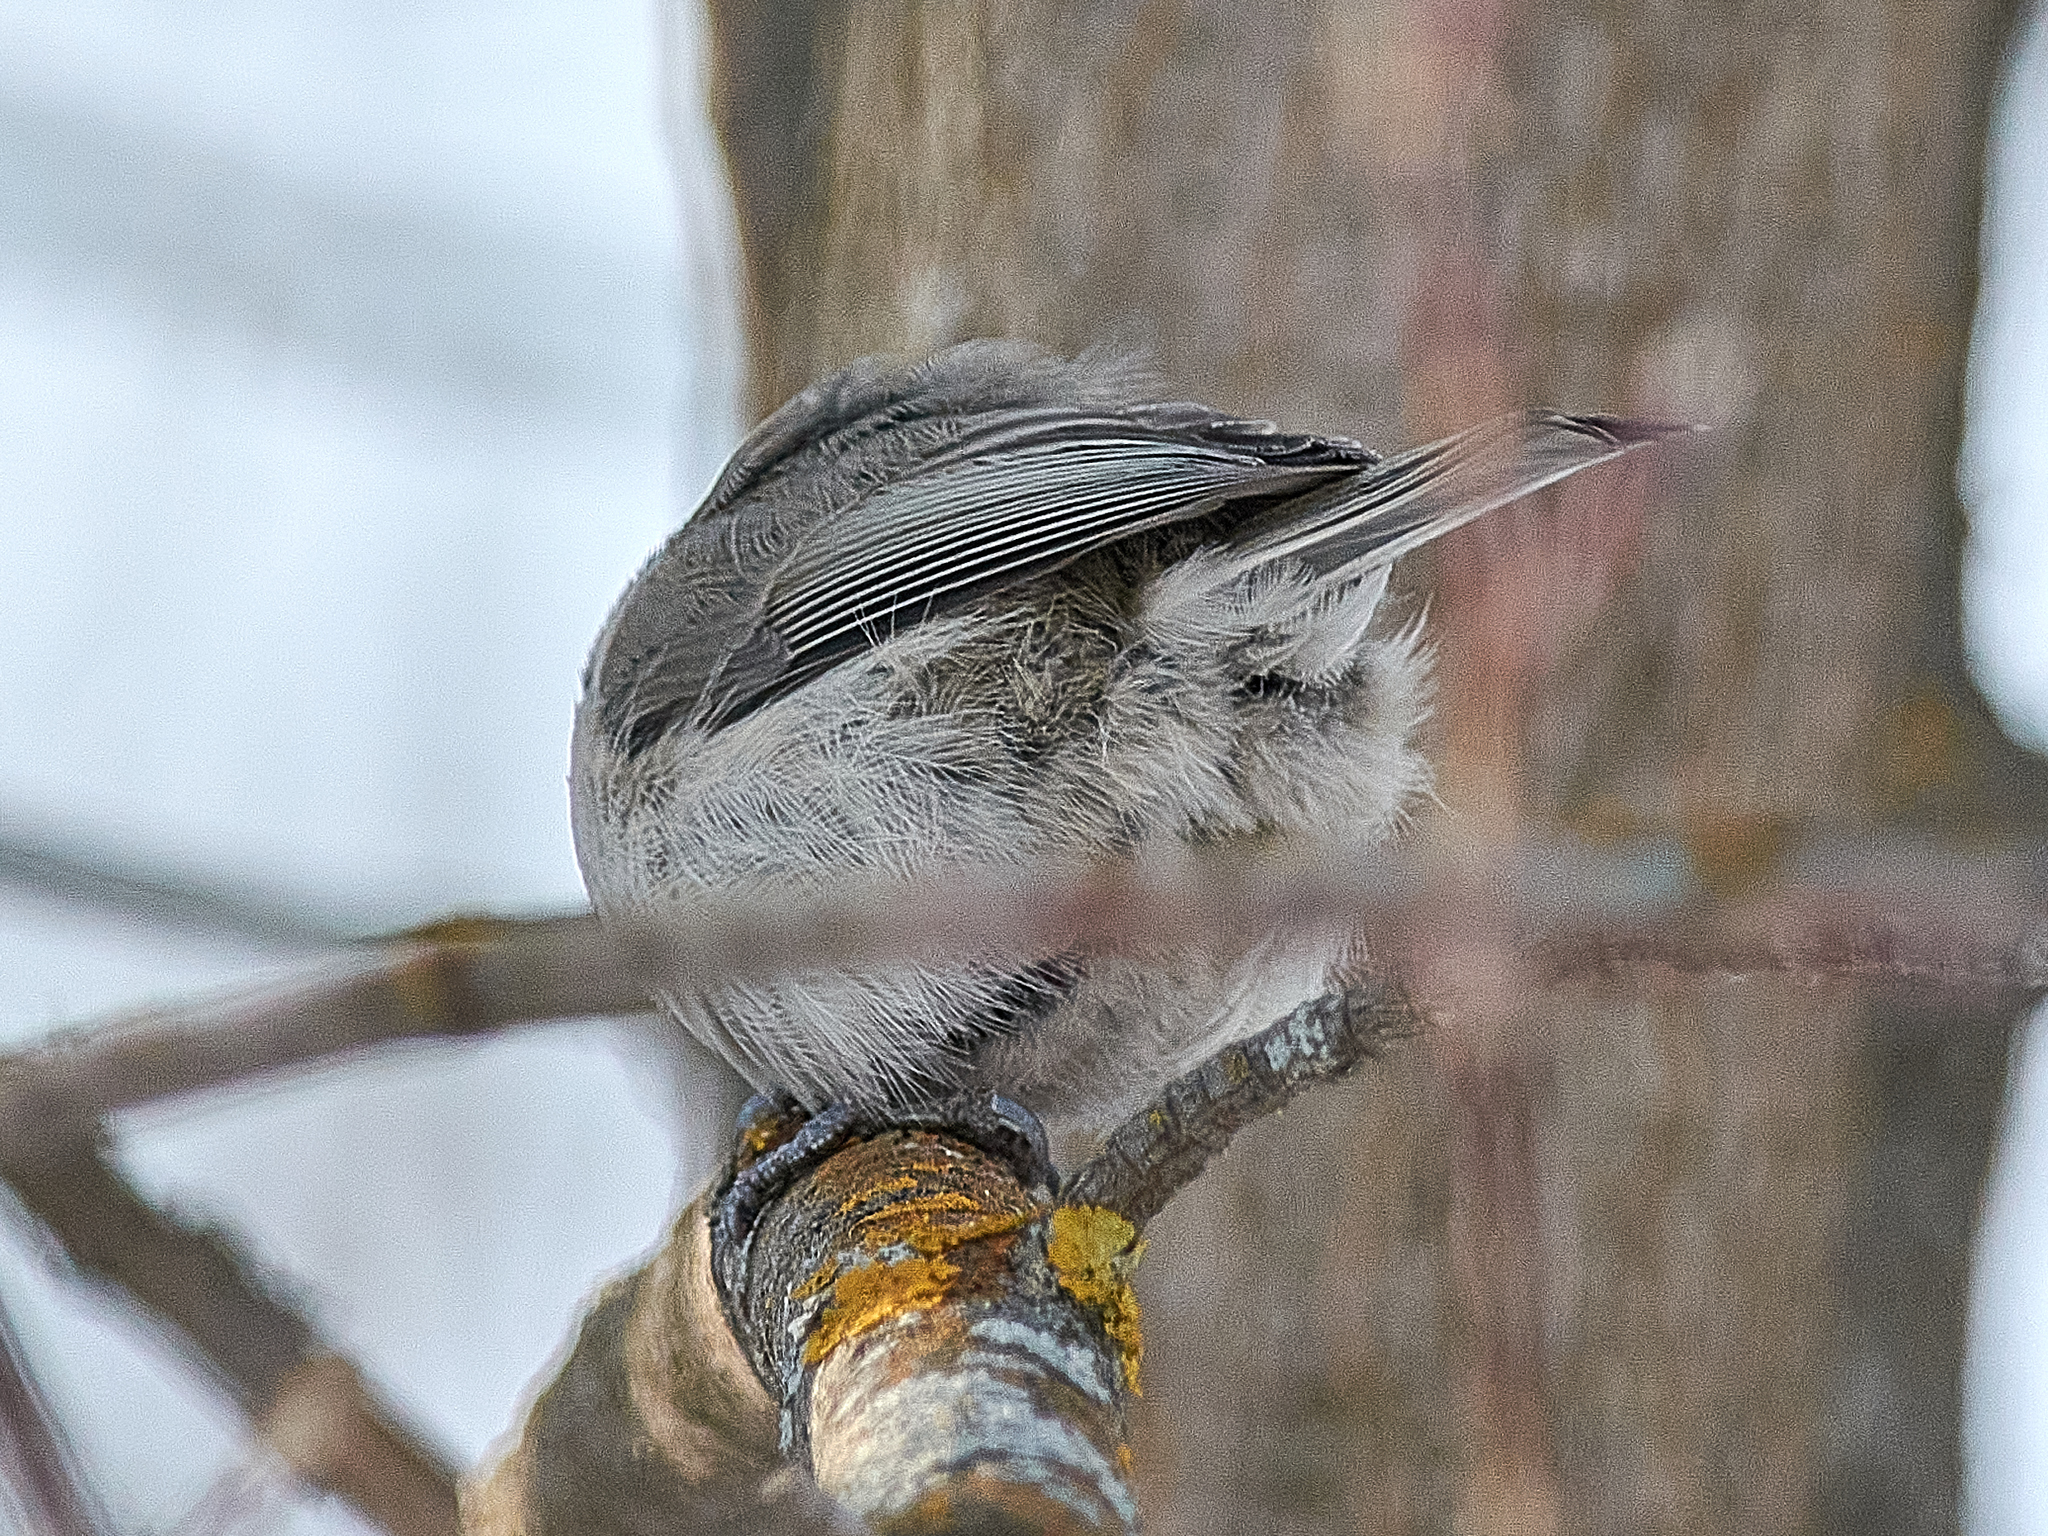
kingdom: Animalia
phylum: Chordata
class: Aves
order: Passeriformes
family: Paridae
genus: Poecile
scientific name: Poecile palustris
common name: Marsh tit
